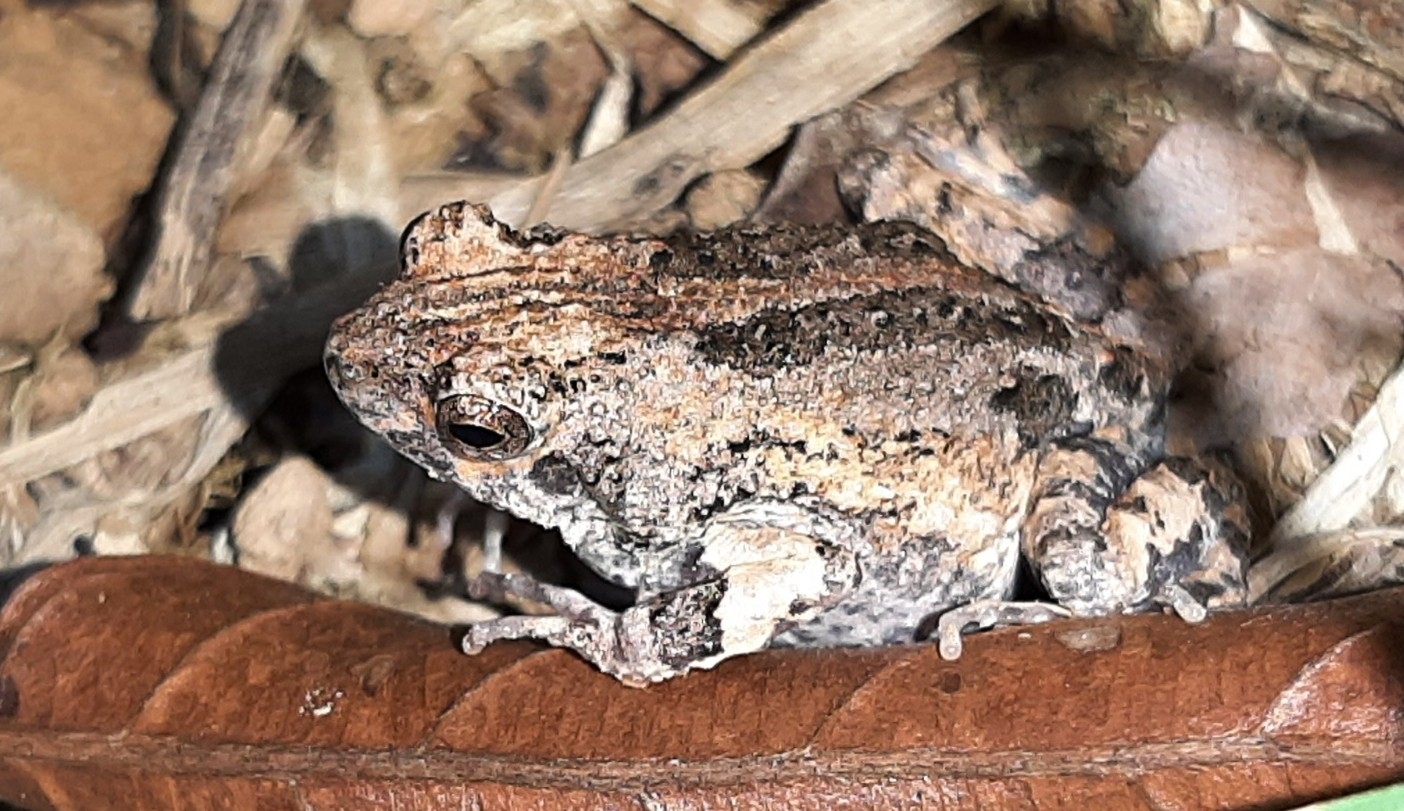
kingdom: Animalia
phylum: Chordata
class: Amphibia
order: Anura
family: Leptodactylidae
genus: Engystomops
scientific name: Engystomops pustulosus
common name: Tungara frog
